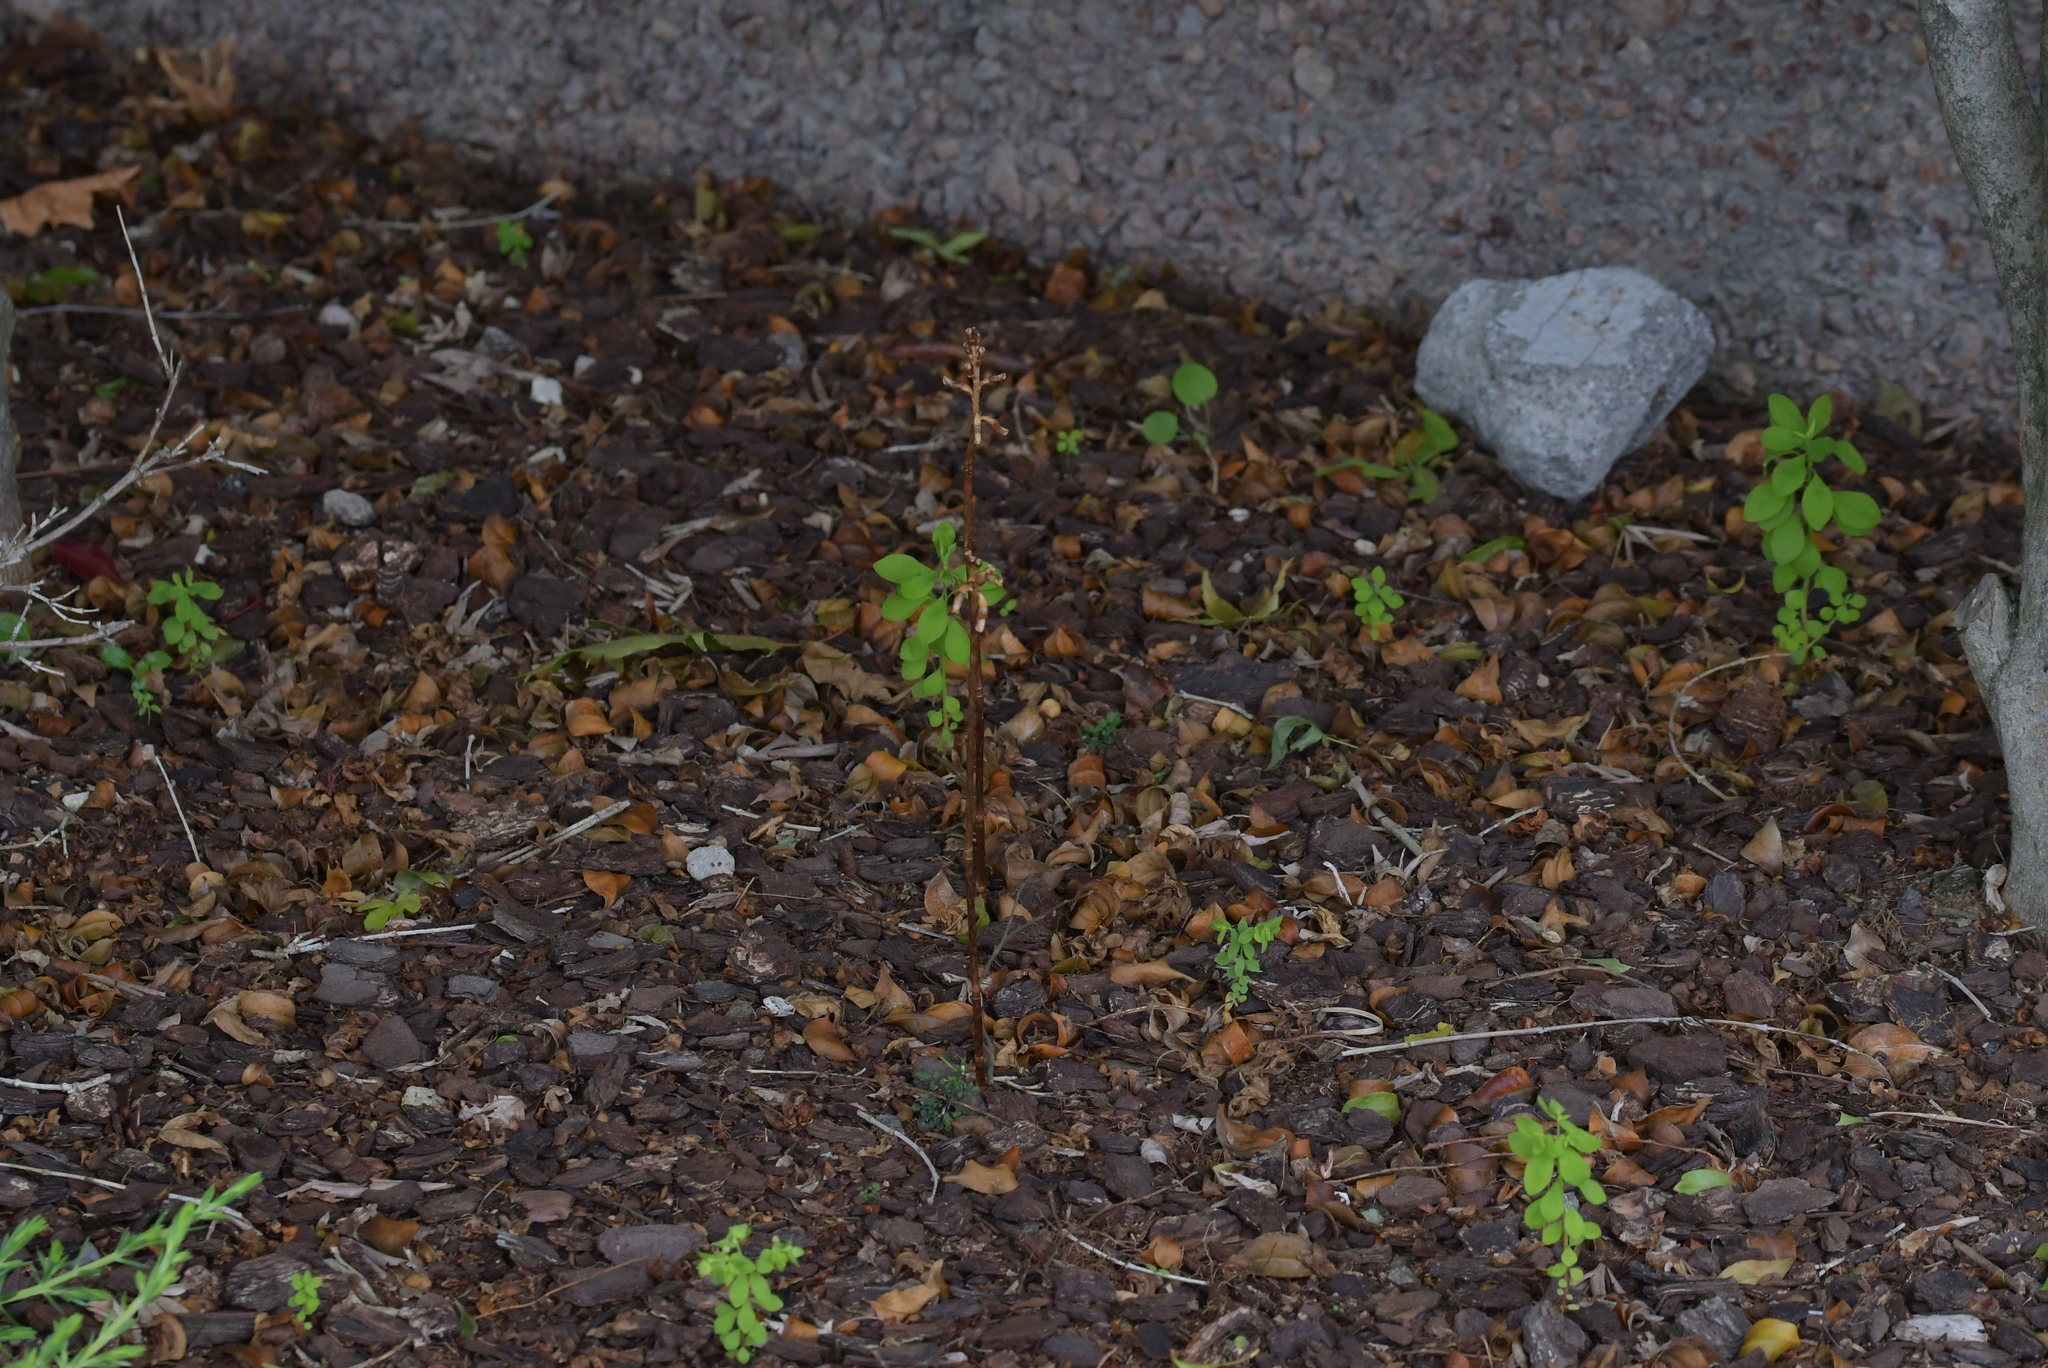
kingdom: Plantae
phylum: Tracheophyta
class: Liliopsida
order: Asparagales
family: Orchidaceae
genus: Gastrodia
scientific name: Gastrodia sesamoides
